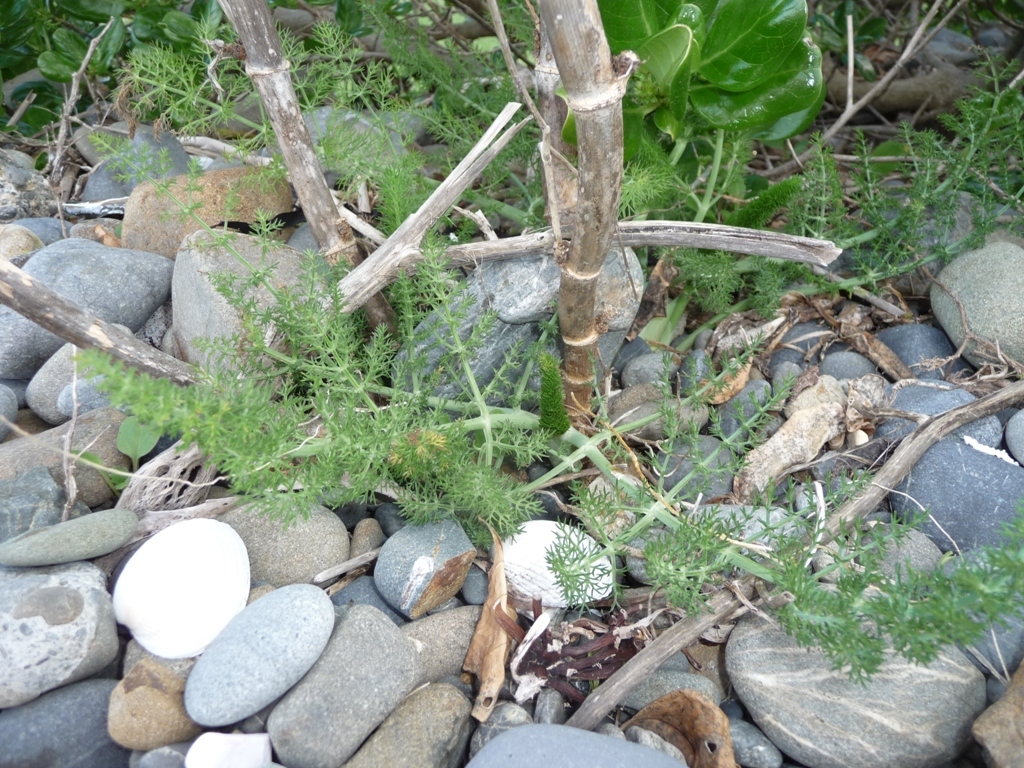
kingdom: Plantae
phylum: Tracheophyta
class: Magnoliopsida
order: Apiales
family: Apiaceae
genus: Foeniculum
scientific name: Foeniculum vulgare
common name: Fennel
